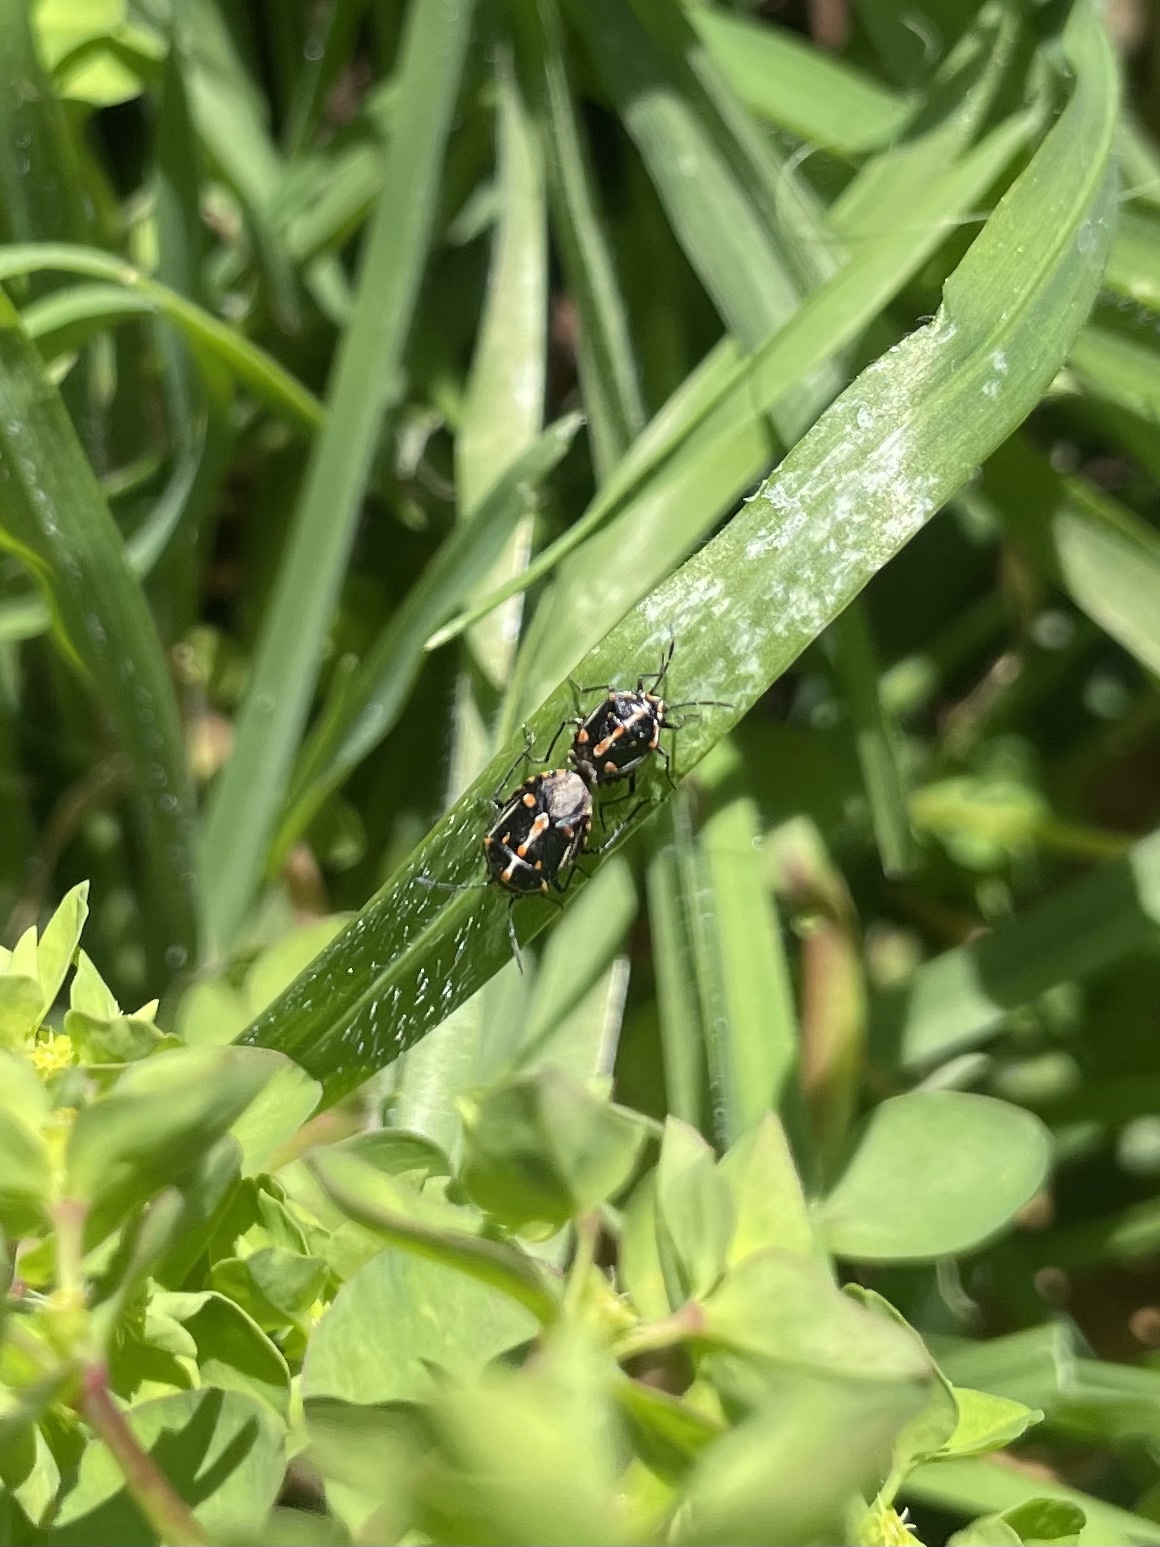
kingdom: Animalia
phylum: Arthropoda
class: Insecta
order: Hemiptera
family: Pentatomidae
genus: Bagrada
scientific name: Bagrada hilaris
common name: Bagrada bug
